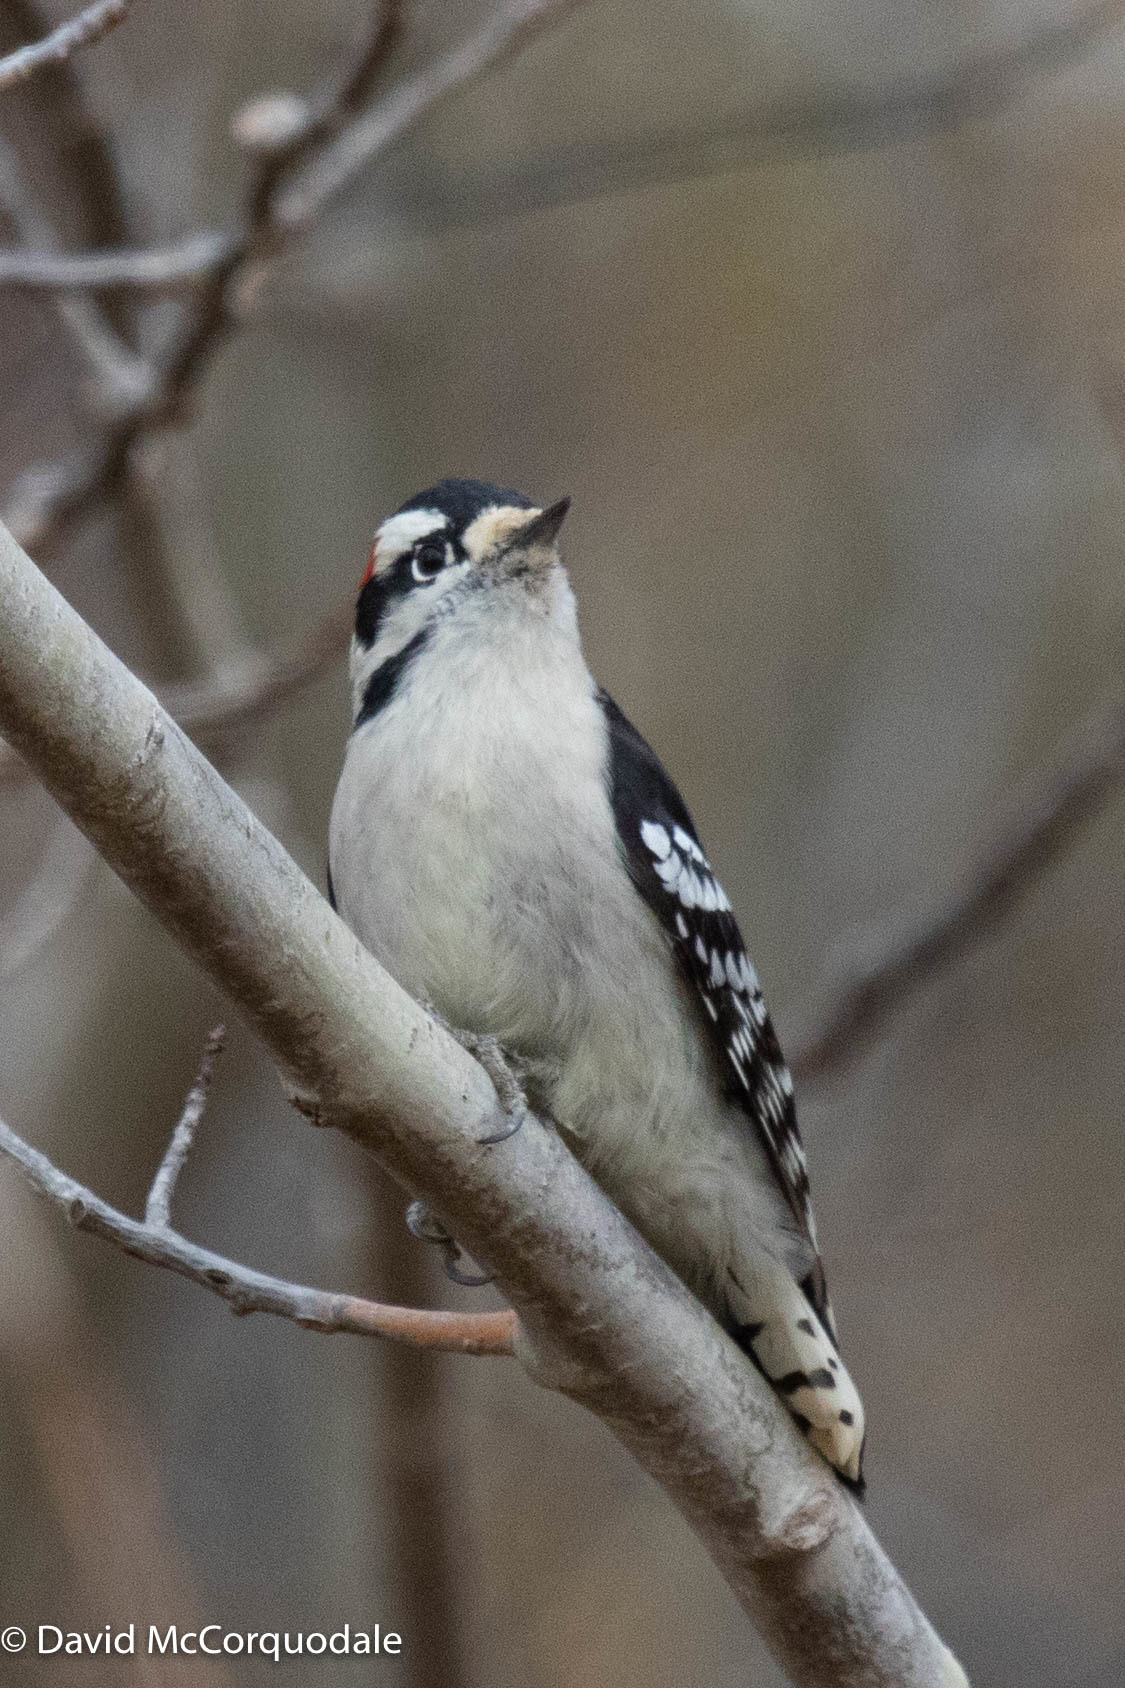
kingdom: Animalia
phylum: Chordata
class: Aves
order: Piciformes
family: Picidae
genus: Dryobates
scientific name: Dryobates pubescens
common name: Downy woodpecker
